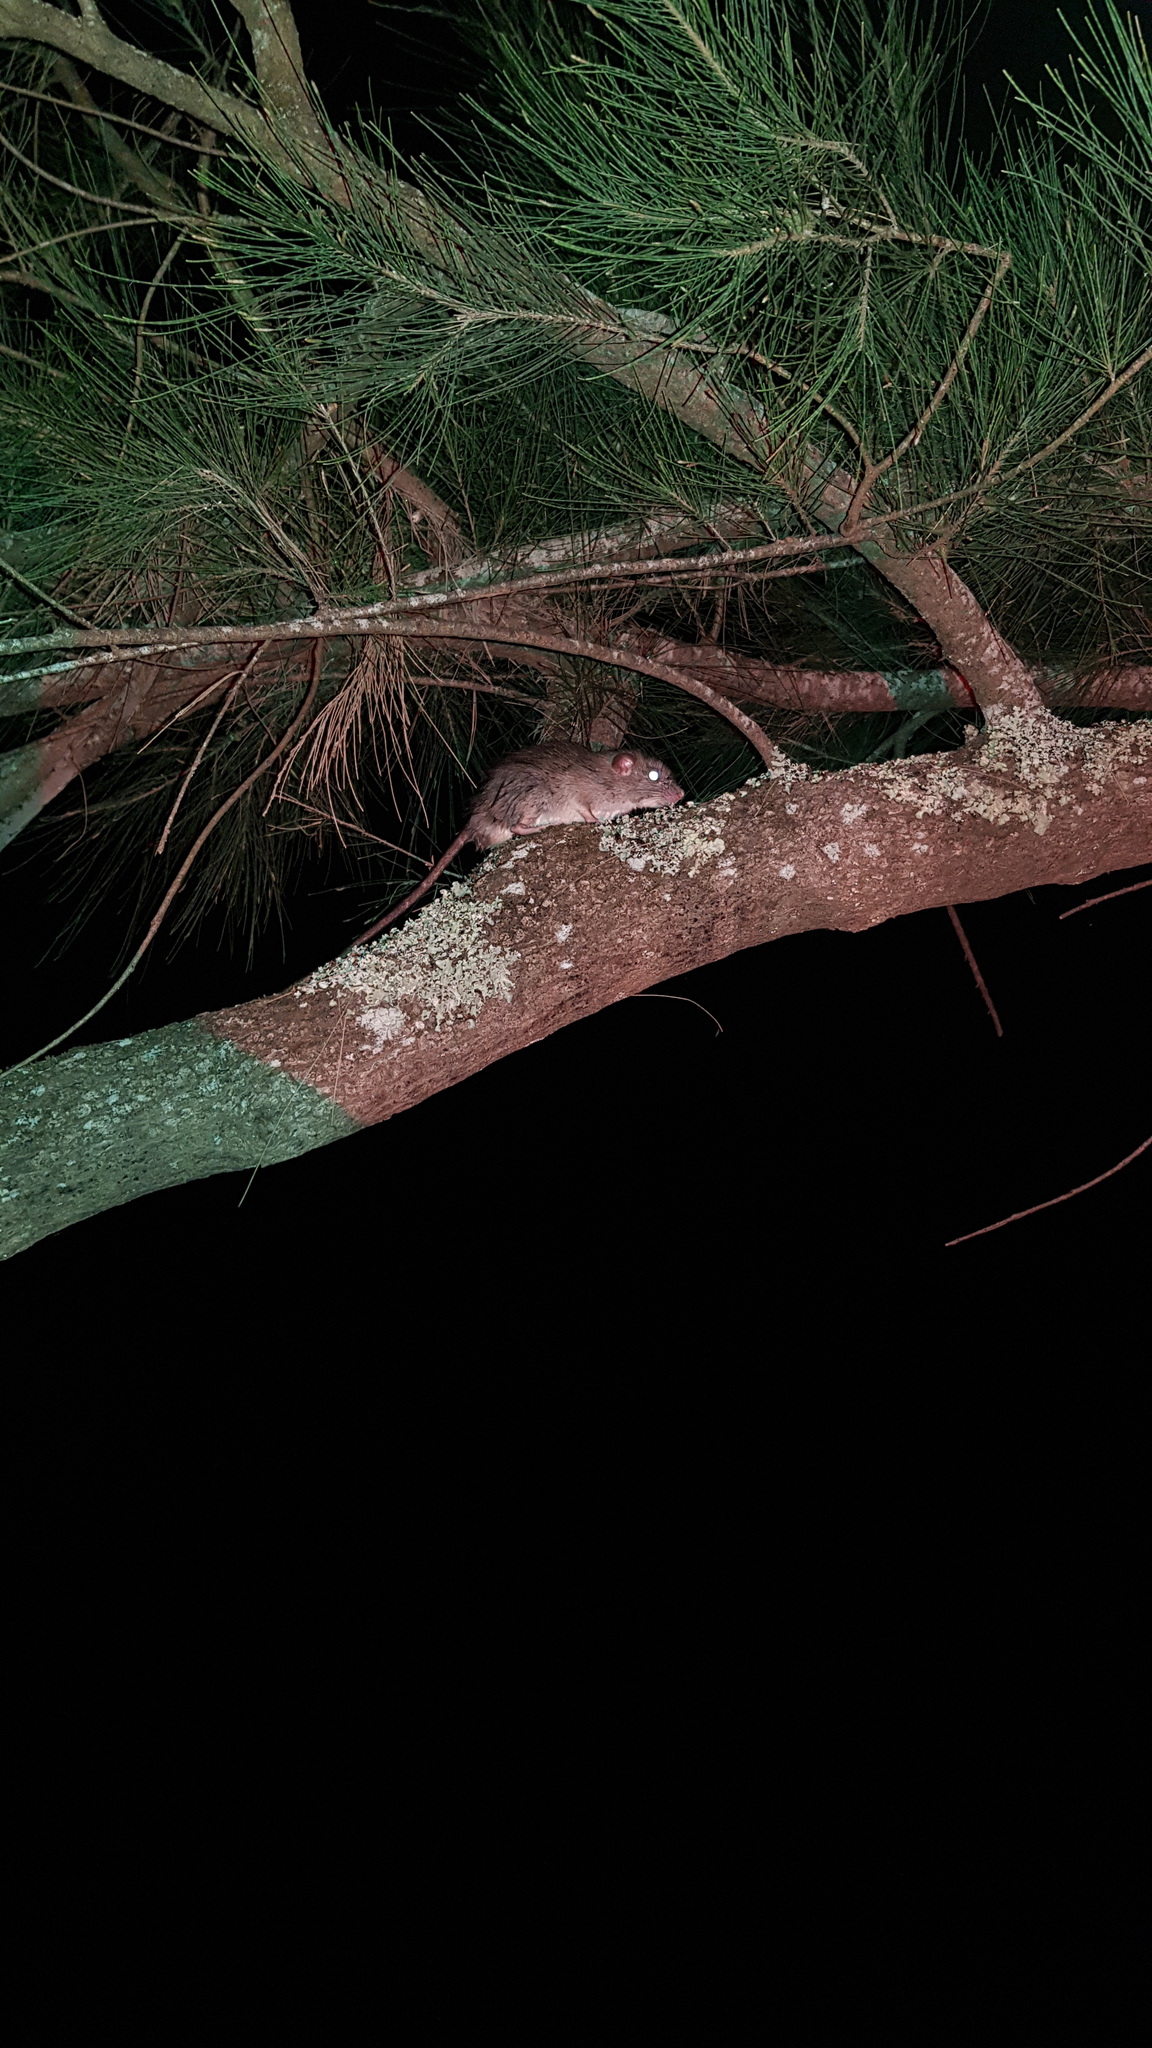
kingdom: Animalia
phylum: Chordata
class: Mammalia
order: Rodentia
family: Muridae
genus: Rattus
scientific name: Rattus rattus
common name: Black rat
